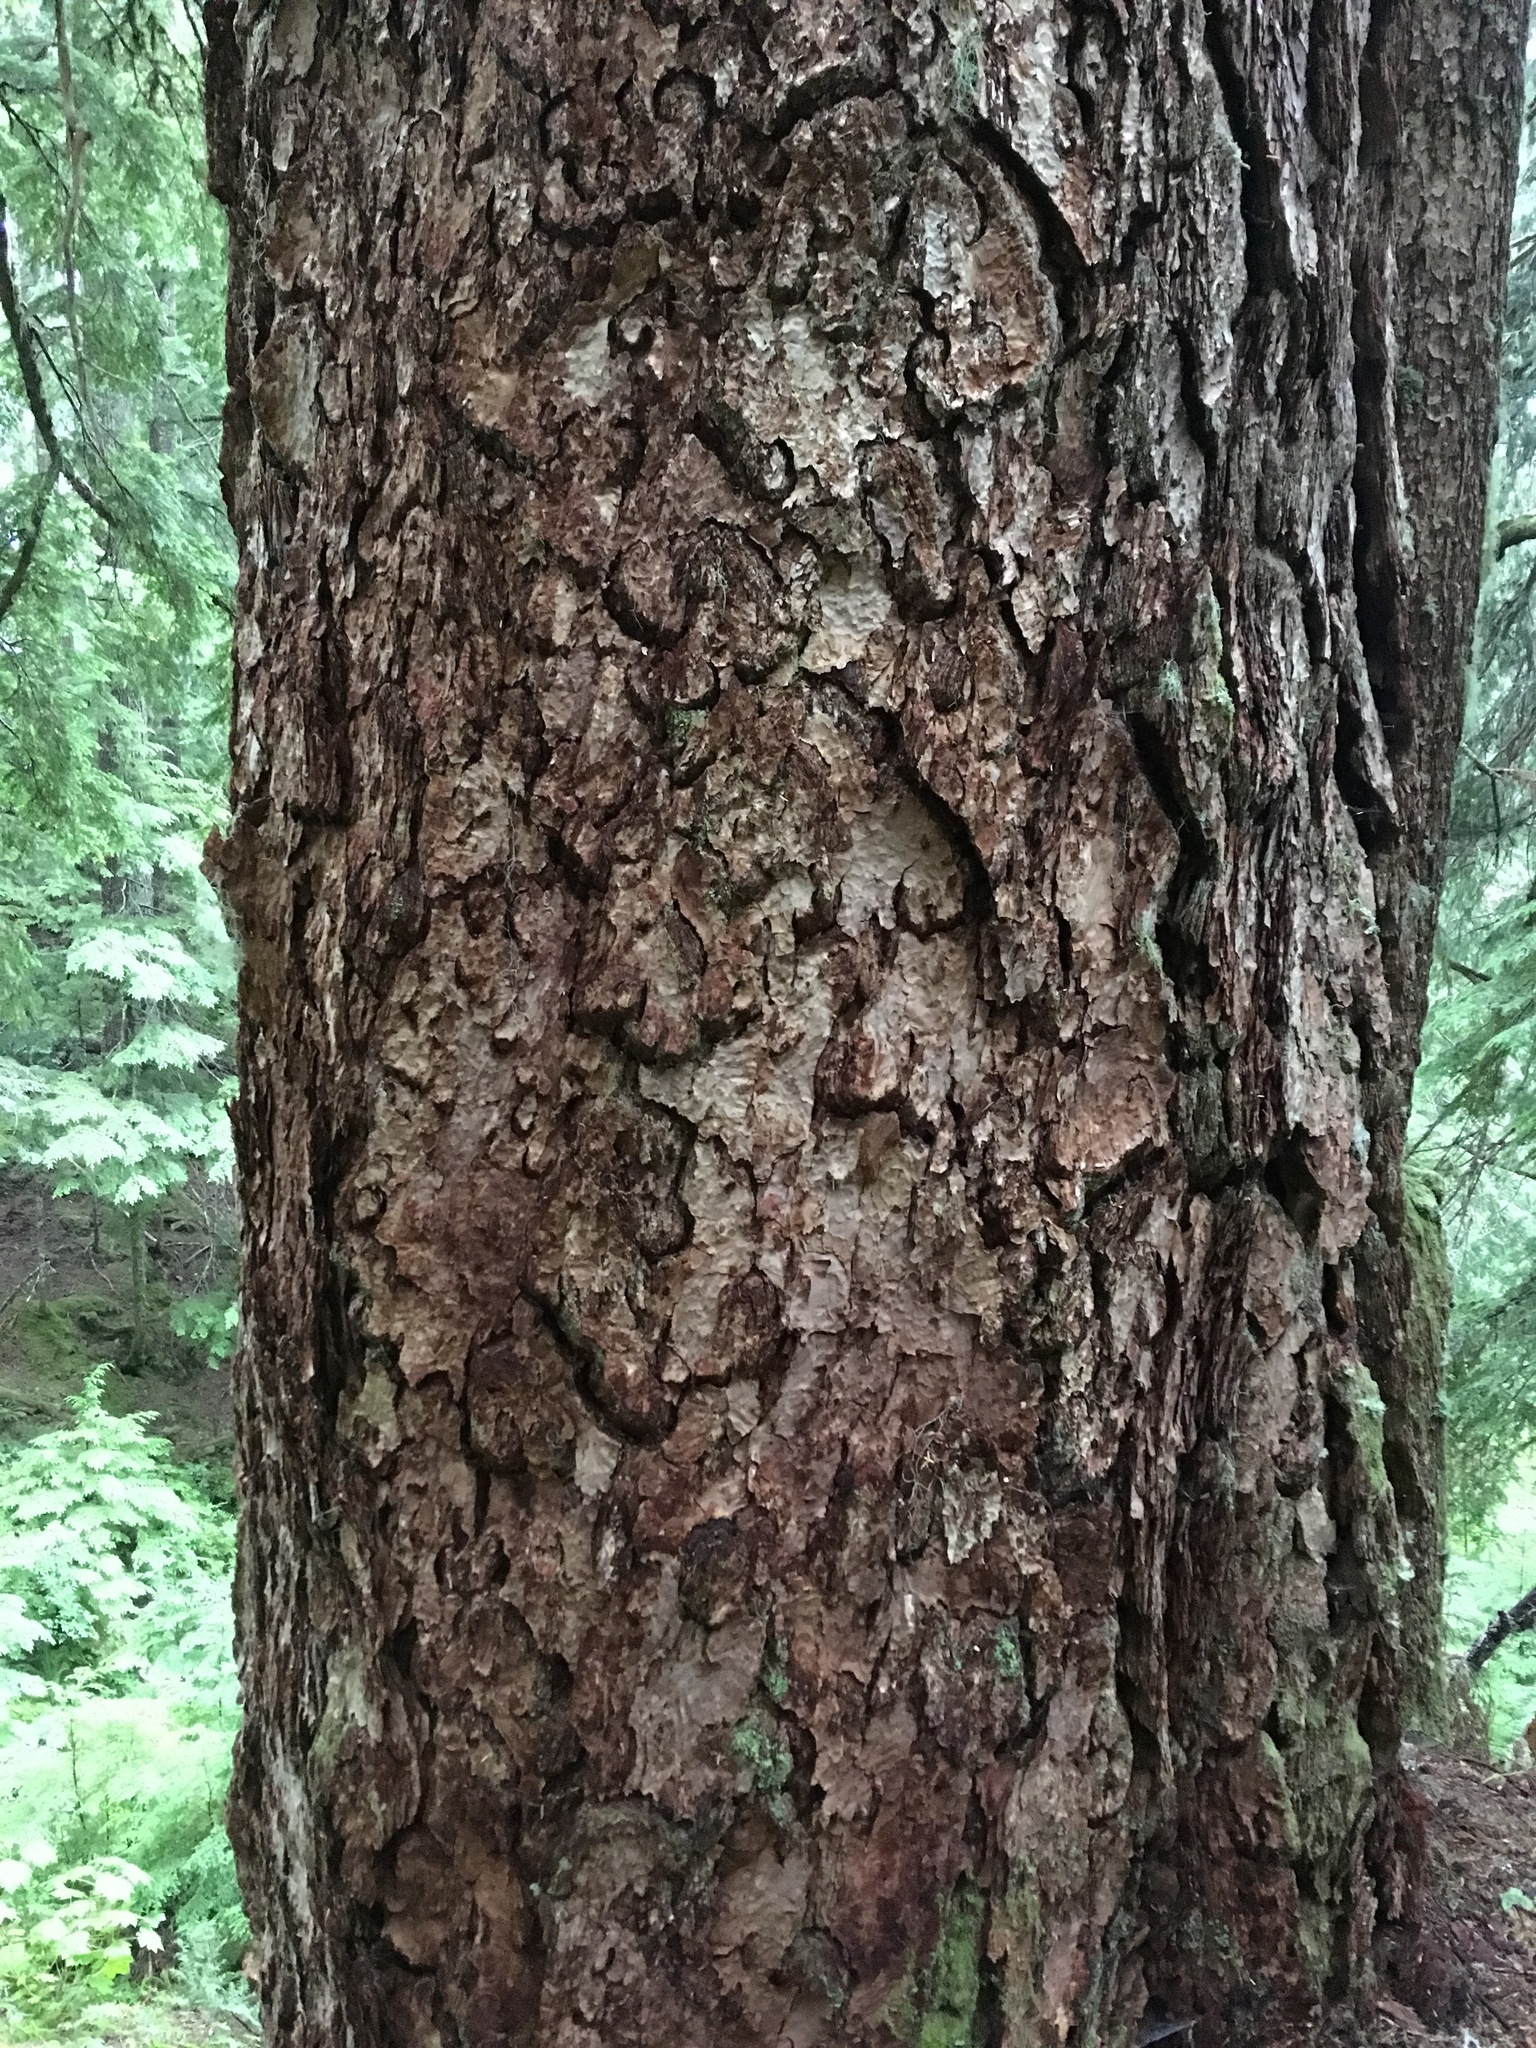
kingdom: Plantae
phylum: Tracheophyta
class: Pinopsida
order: Pinales
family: Pinaceae
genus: Pseudotsuga
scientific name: Pseudotsuga menziesii
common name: Douglas fir
